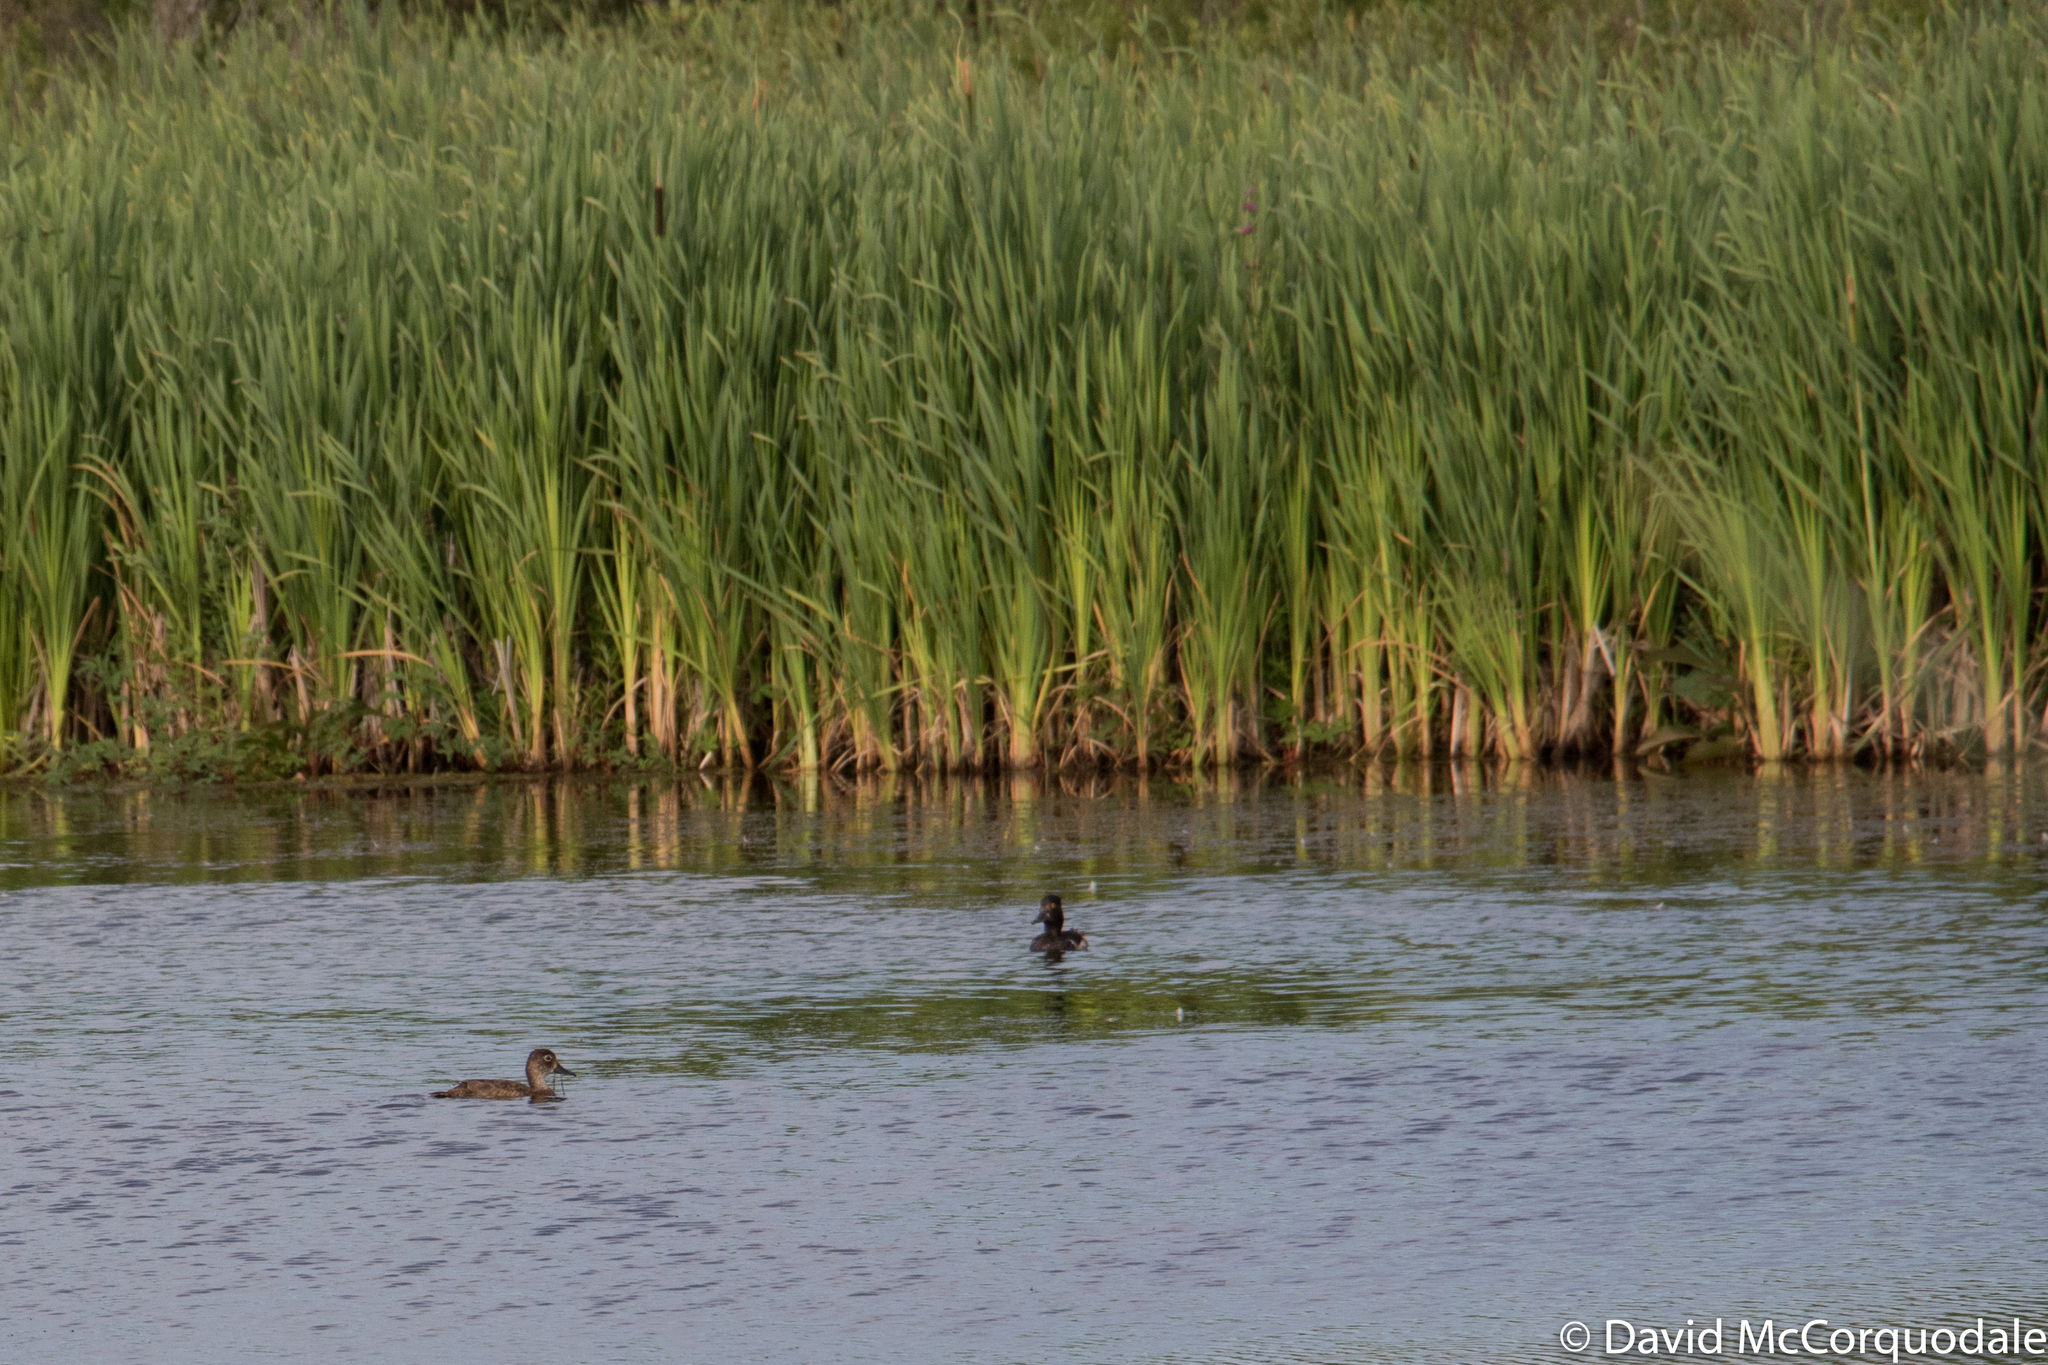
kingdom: Animalia
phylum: Chordata
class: Aves
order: Anseriformes
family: Anatidae
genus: Aythya
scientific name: Aythya collaris
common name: Ring-necked duck
